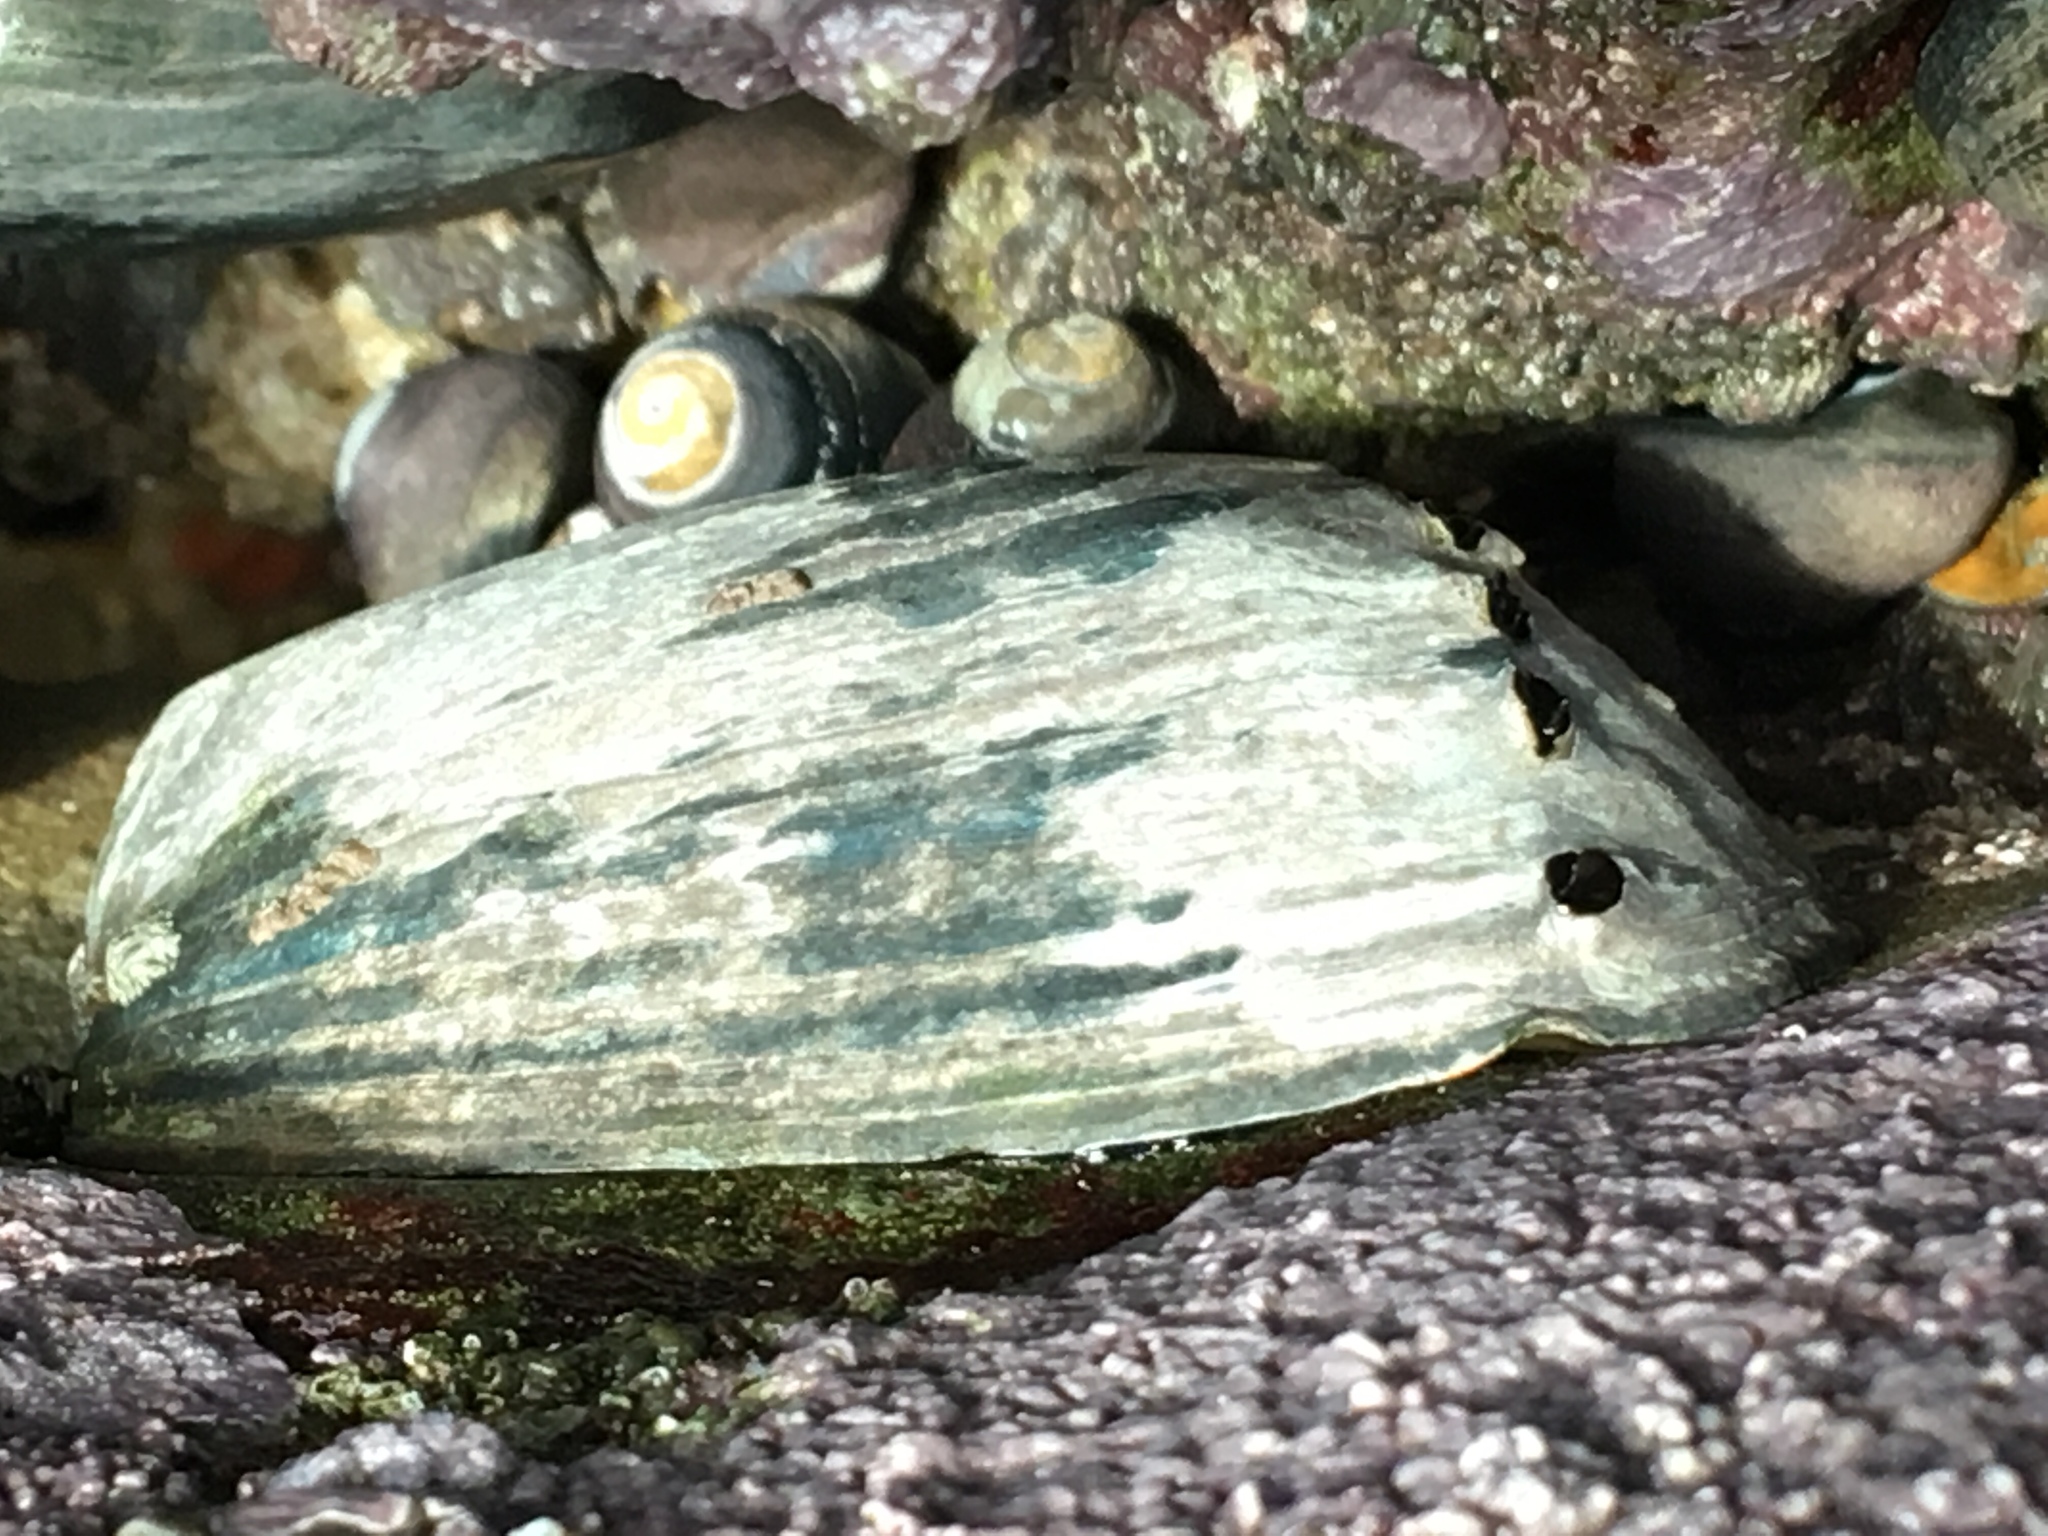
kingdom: Animalia
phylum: Mollusca
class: Gastropoda
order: Lepetellida
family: Haliotidae
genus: Haliotis
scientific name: Haliotis cracherodii
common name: Black abalone
